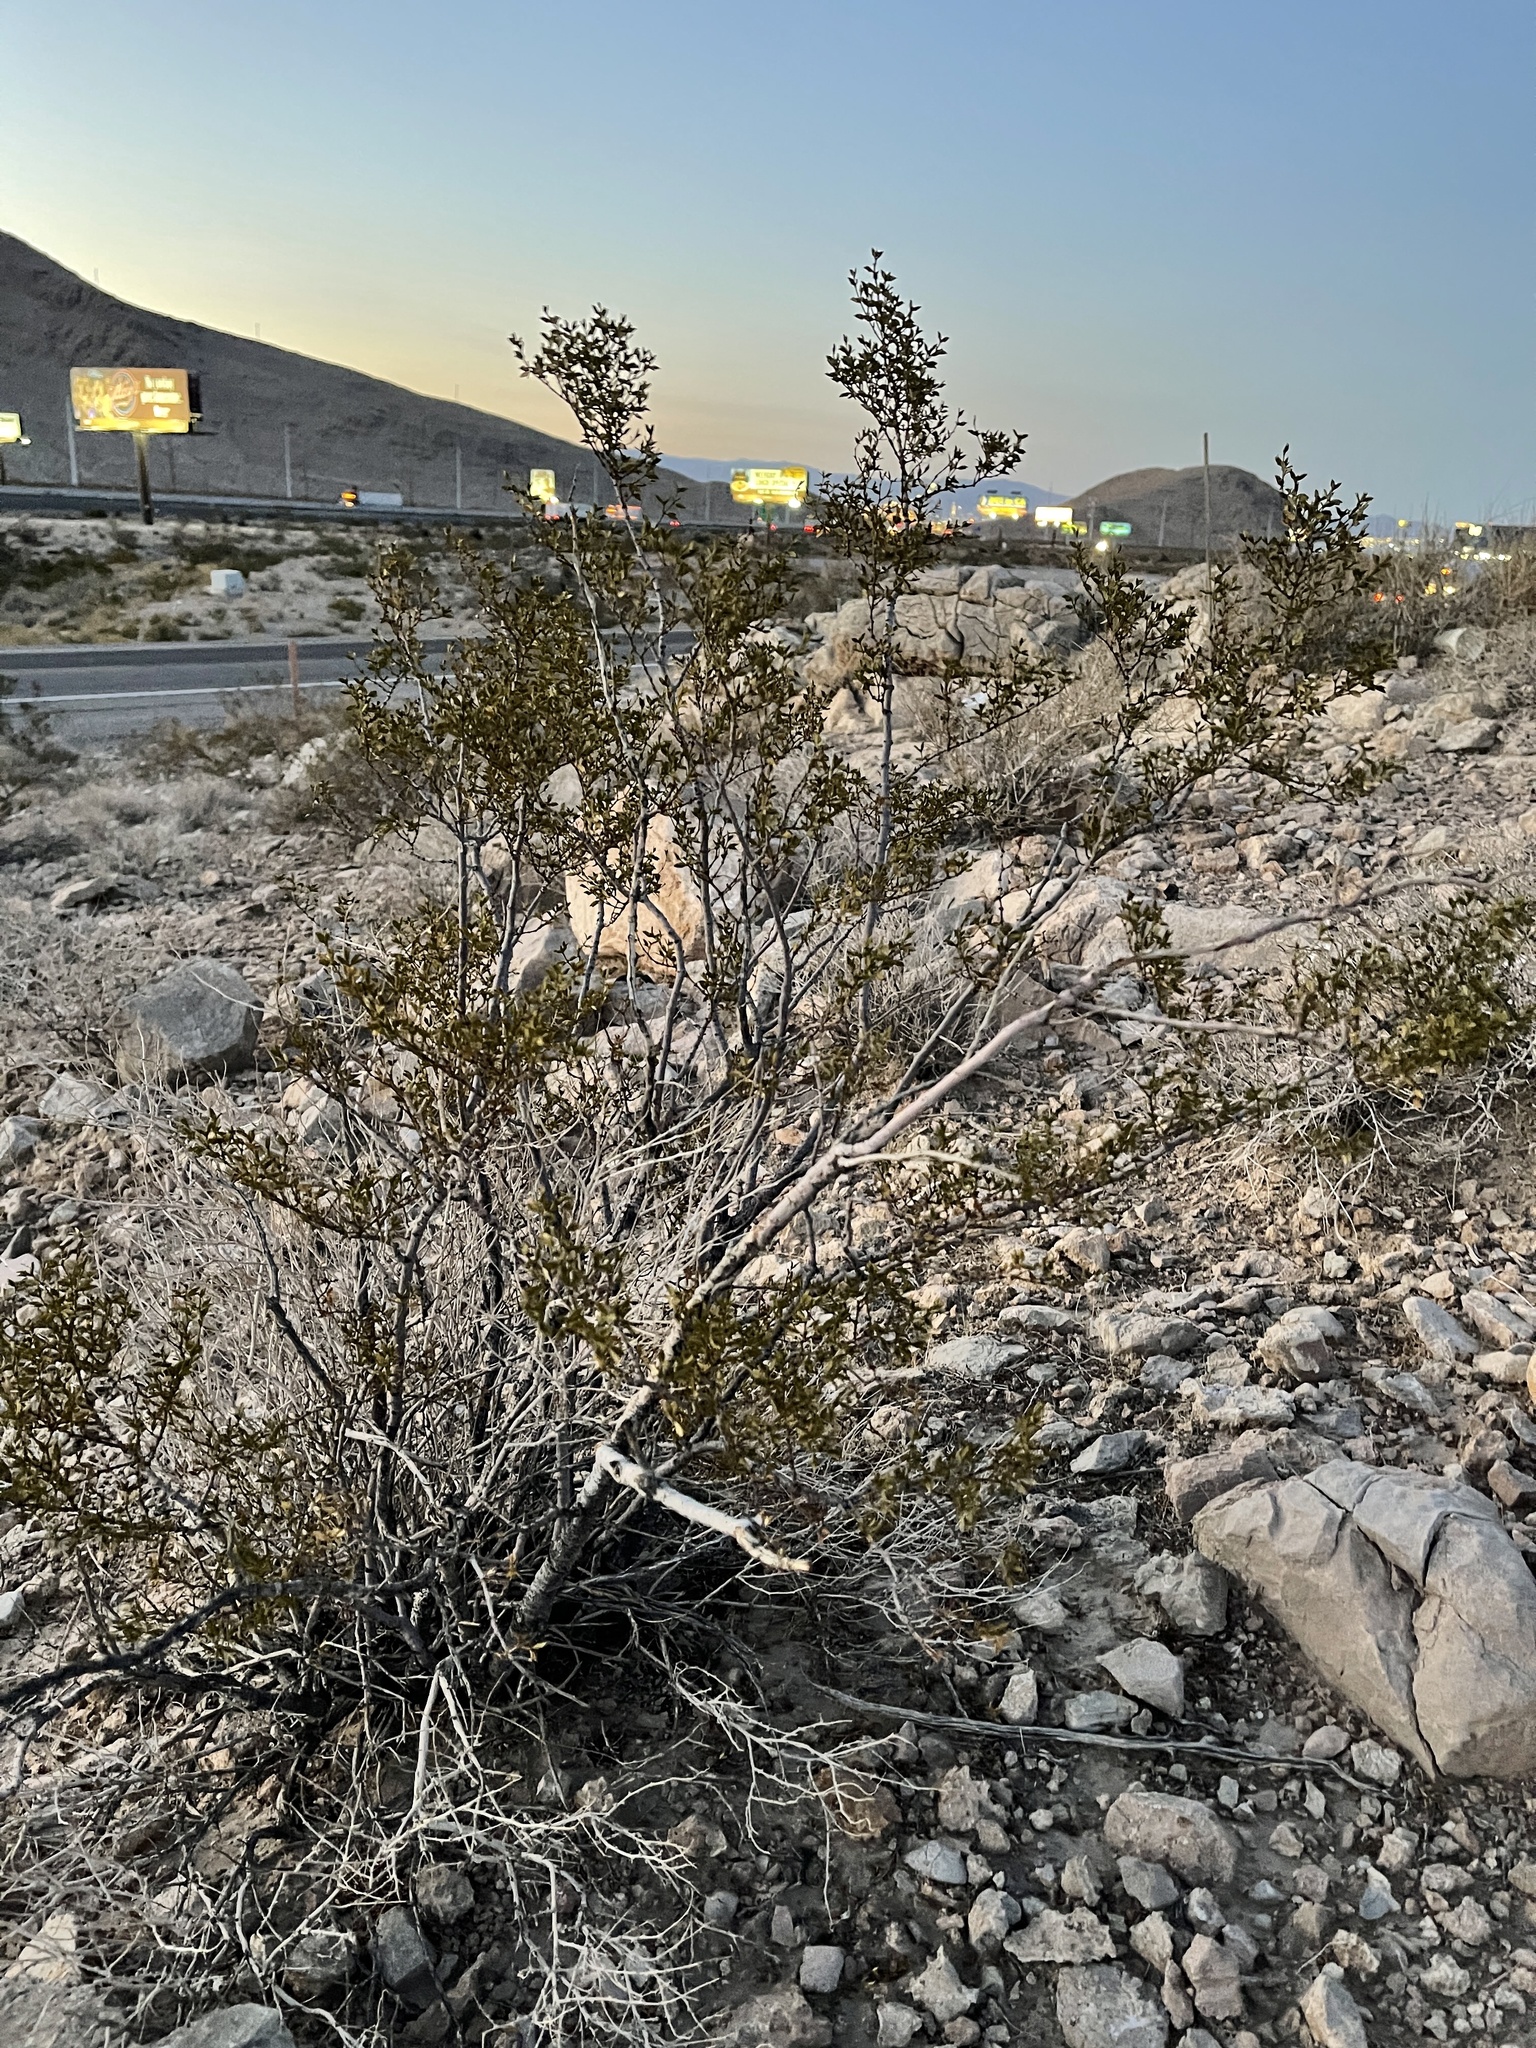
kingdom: Plantae
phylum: Tracheophyta
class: Magnoliopsida
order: Zygophyllales
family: Zygophyllaceae
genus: Larrea
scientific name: Larrea tridentata
